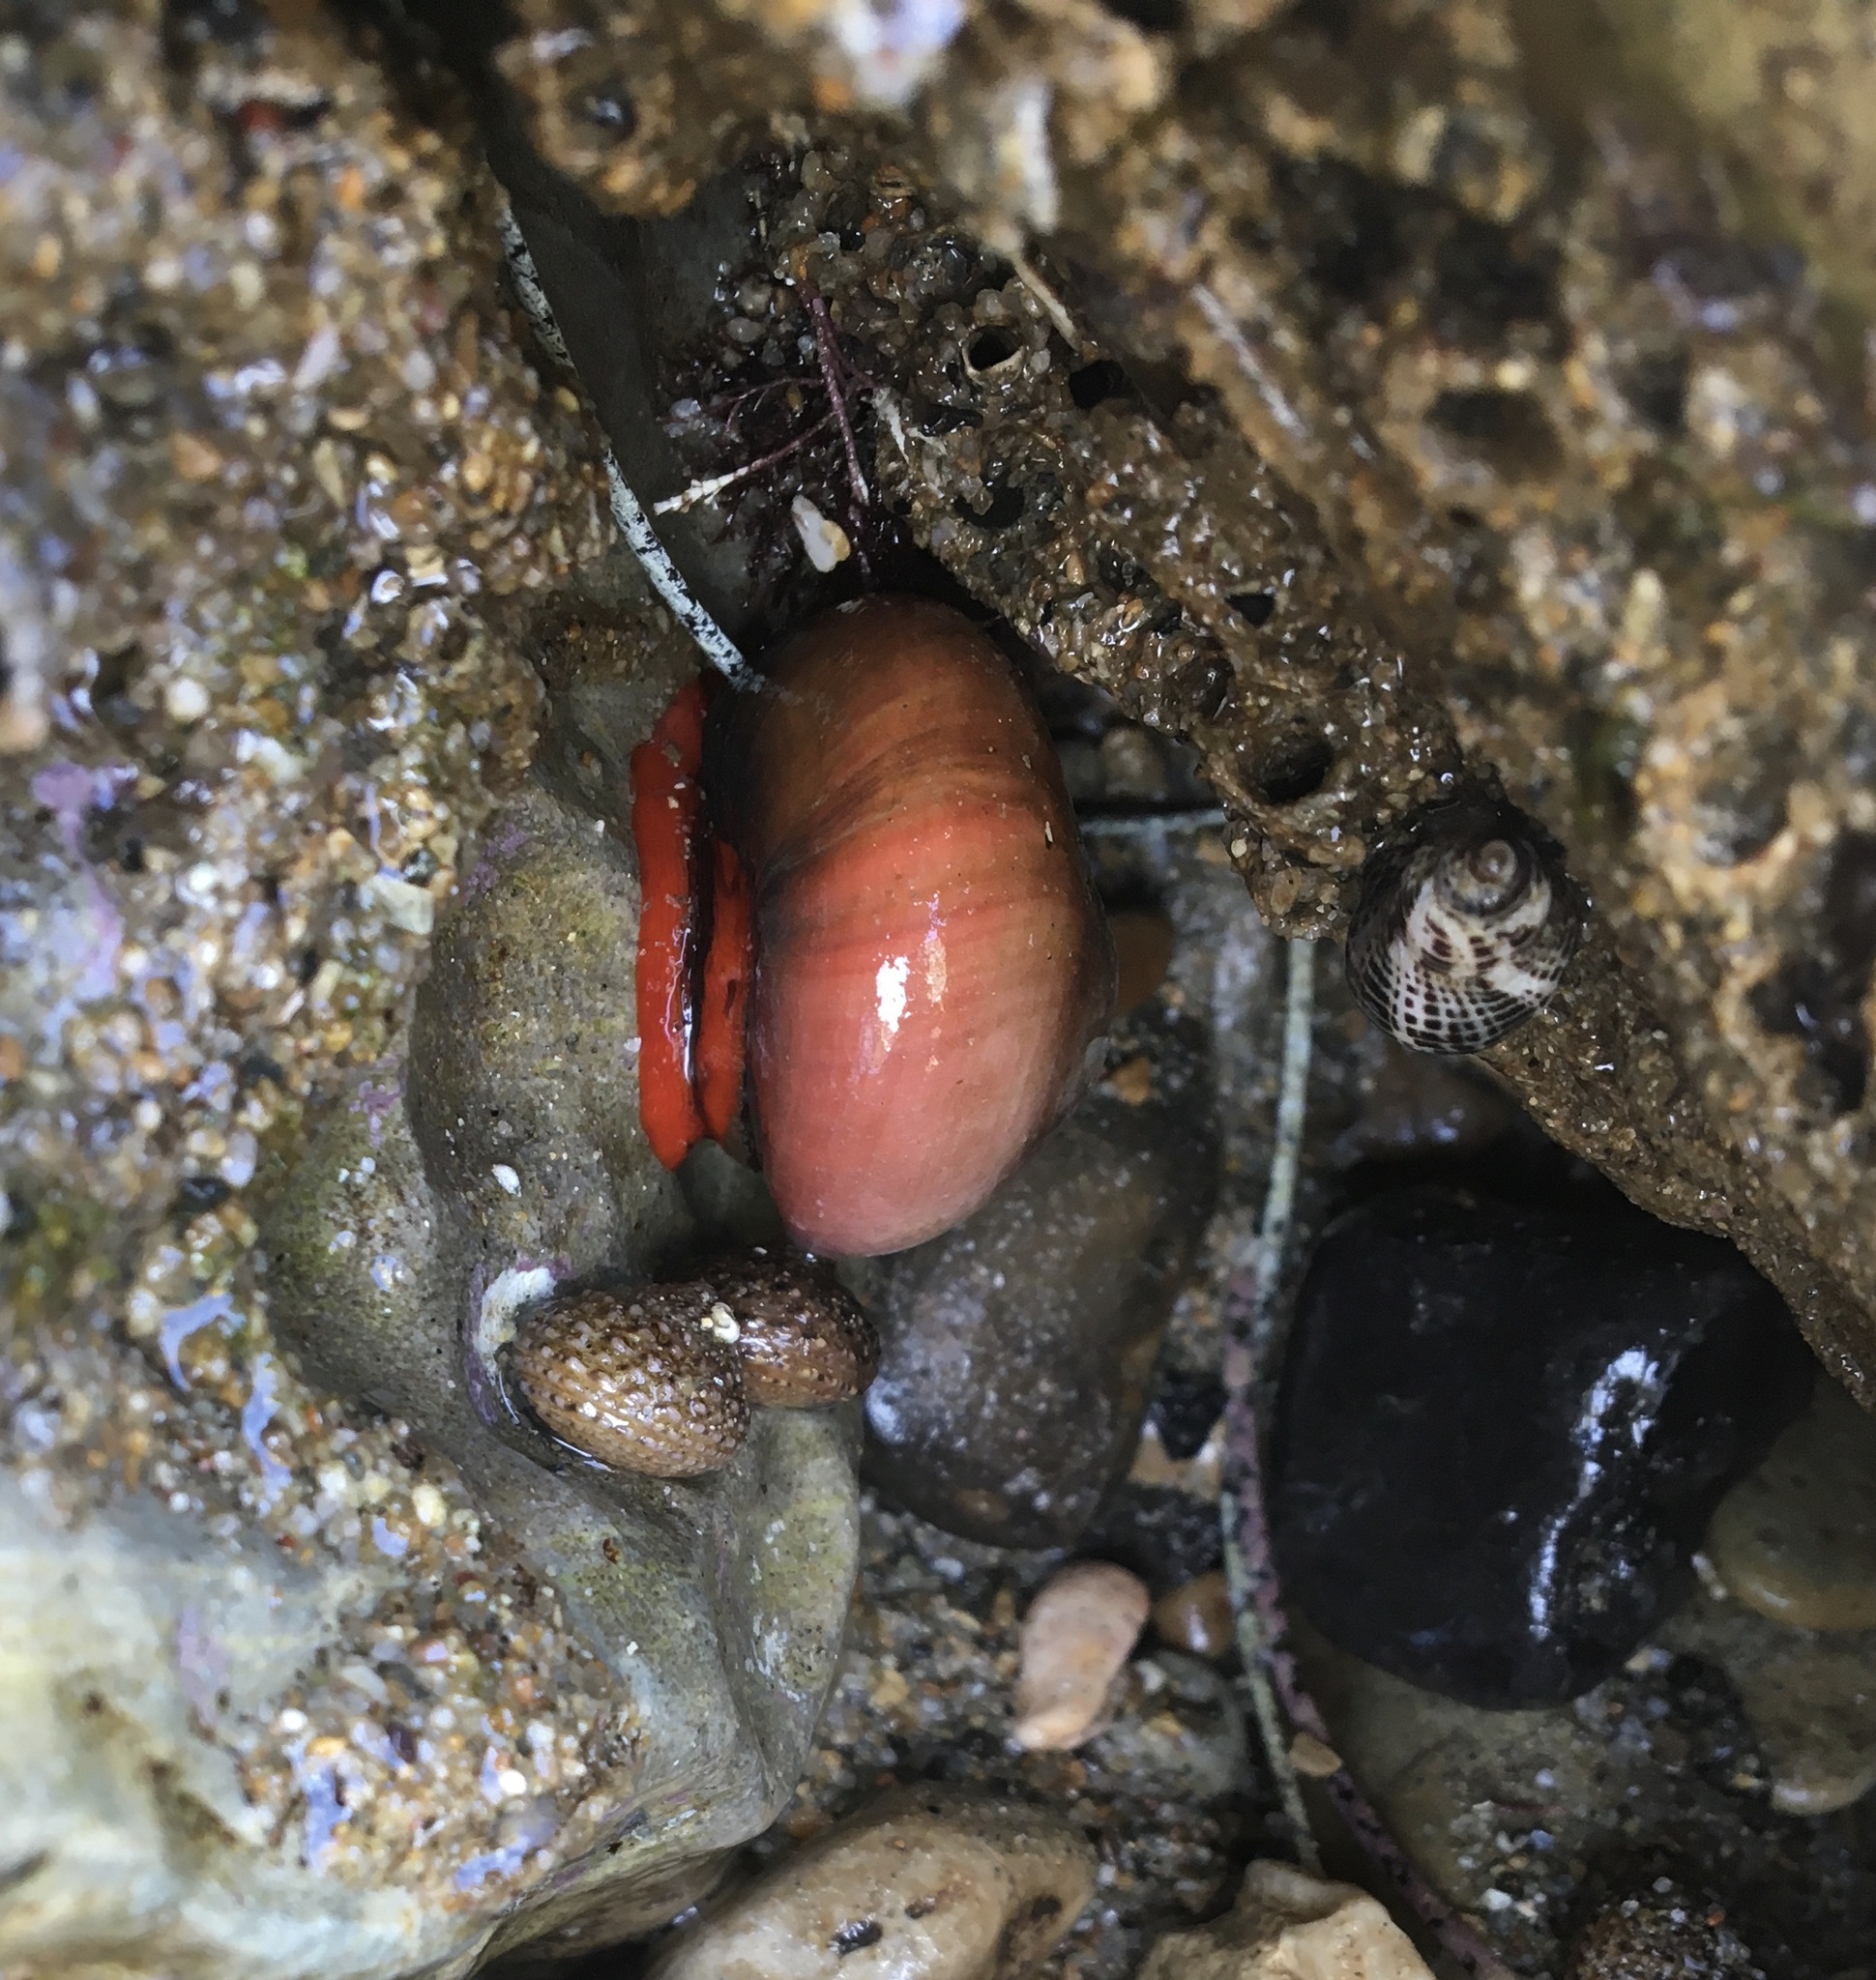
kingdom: Animalia
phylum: Mollusca
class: Gastropoda
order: Trochida
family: Tegulidae
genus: Norrisia
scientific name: Norrisia norrisii
